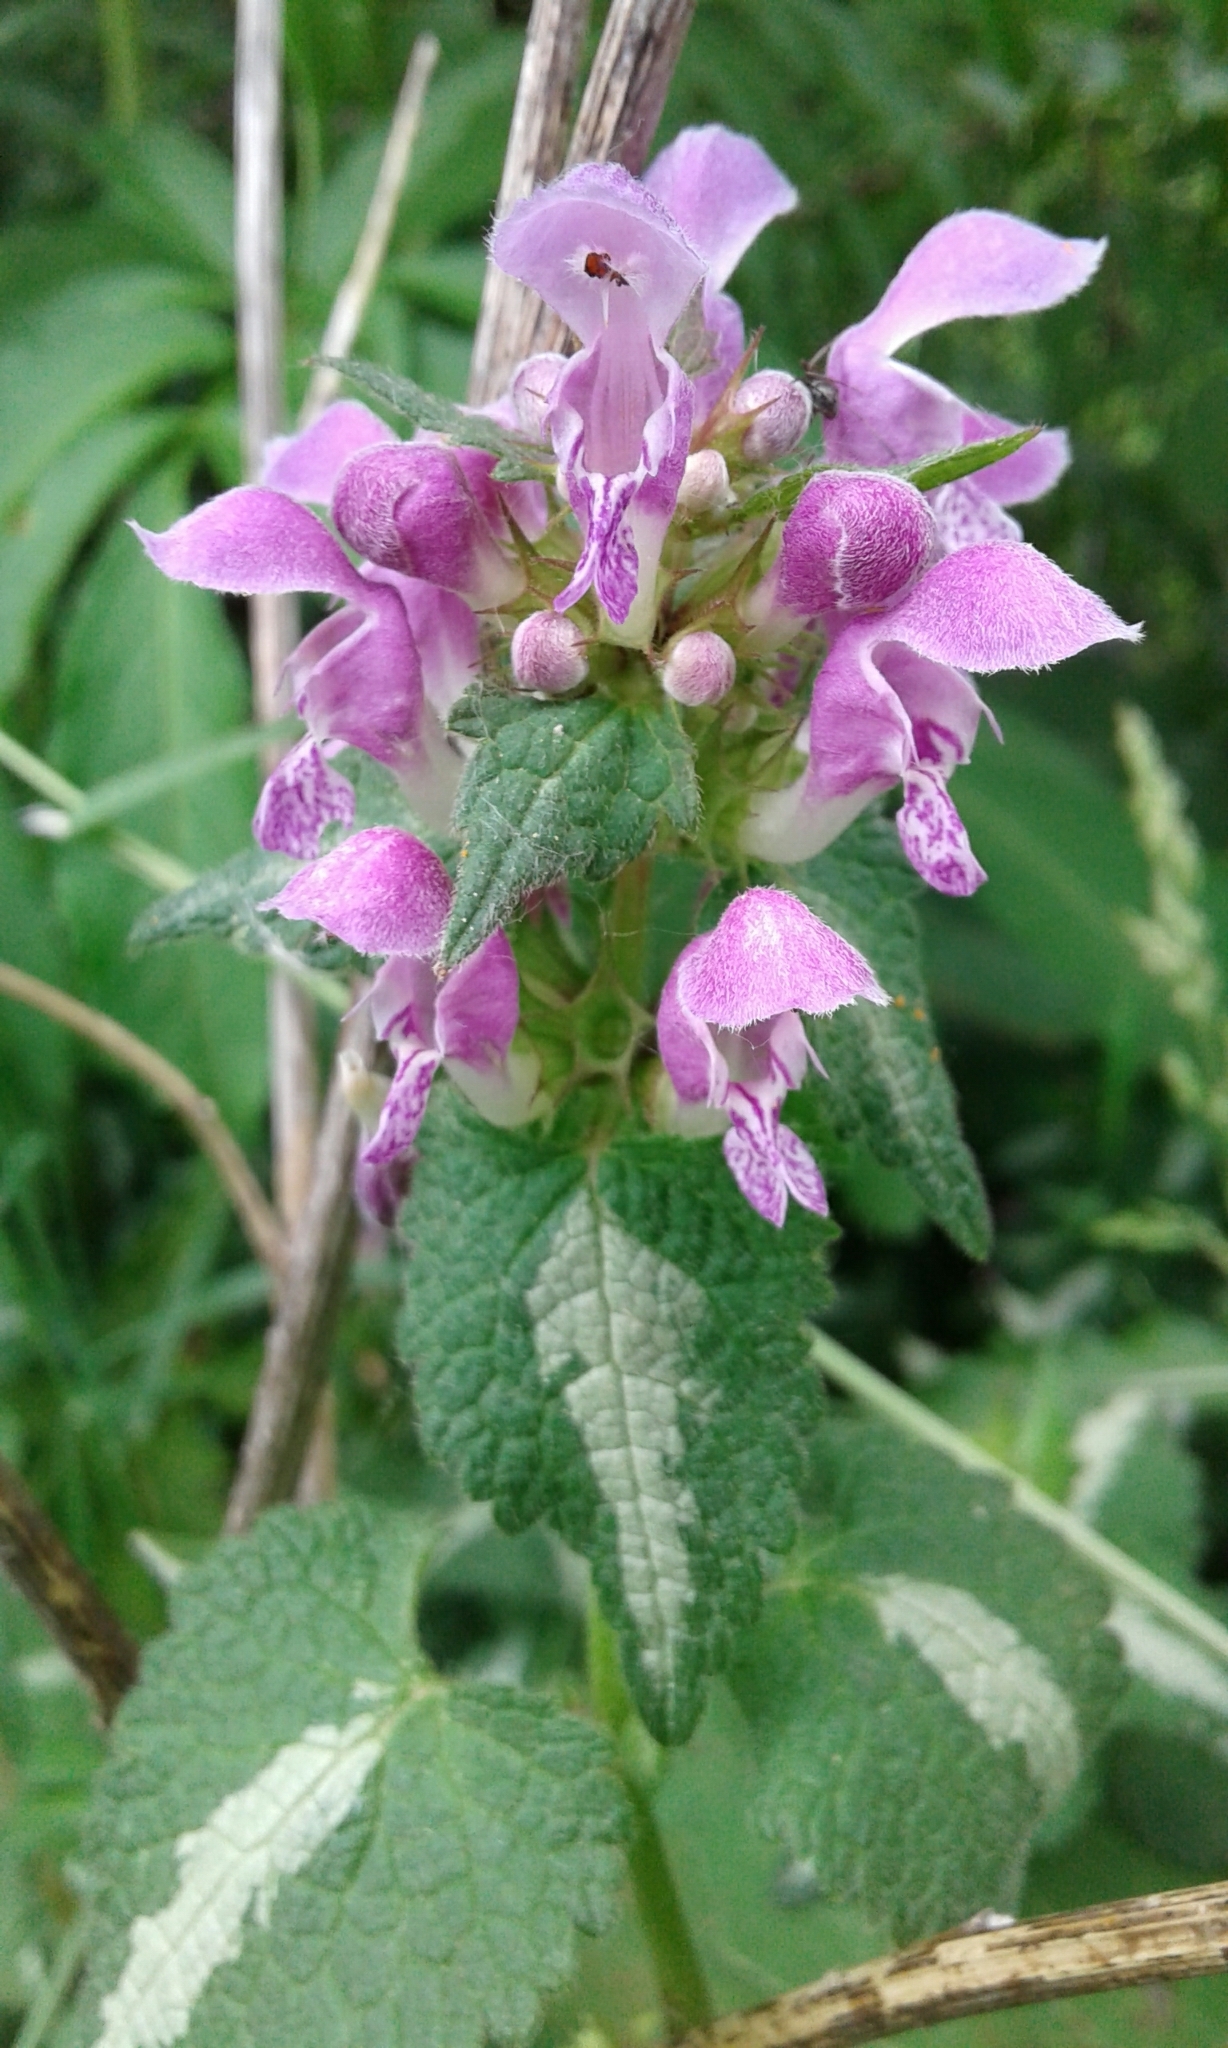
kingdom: Plantae
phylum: Tracheophyta
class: Magnoliopsida
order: Lamiales
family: Lamiaceae
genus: Lamium
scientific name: Lamium maculatum
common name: Spotted dead-nettle
